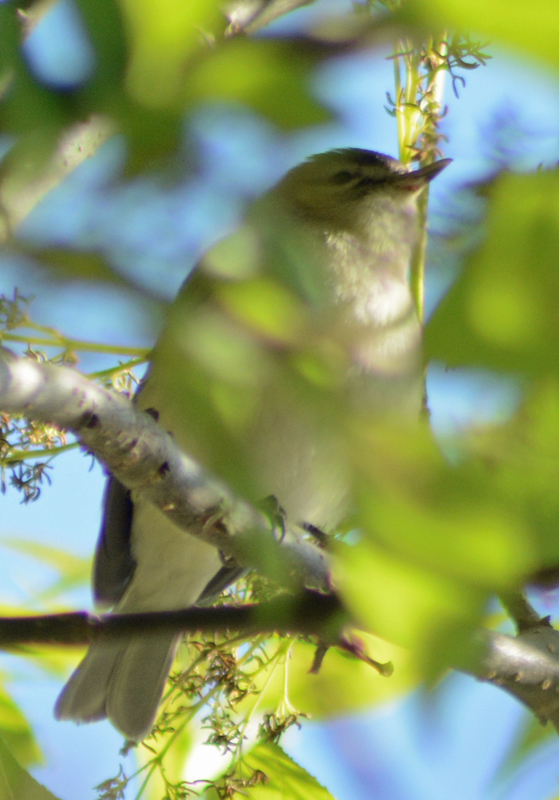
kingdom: Animalia
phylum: Chordata
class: Aves
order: Passeriformes
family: Vireonidae
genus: Vireo
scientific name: Vireo gilvus
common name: Warbling vireo
